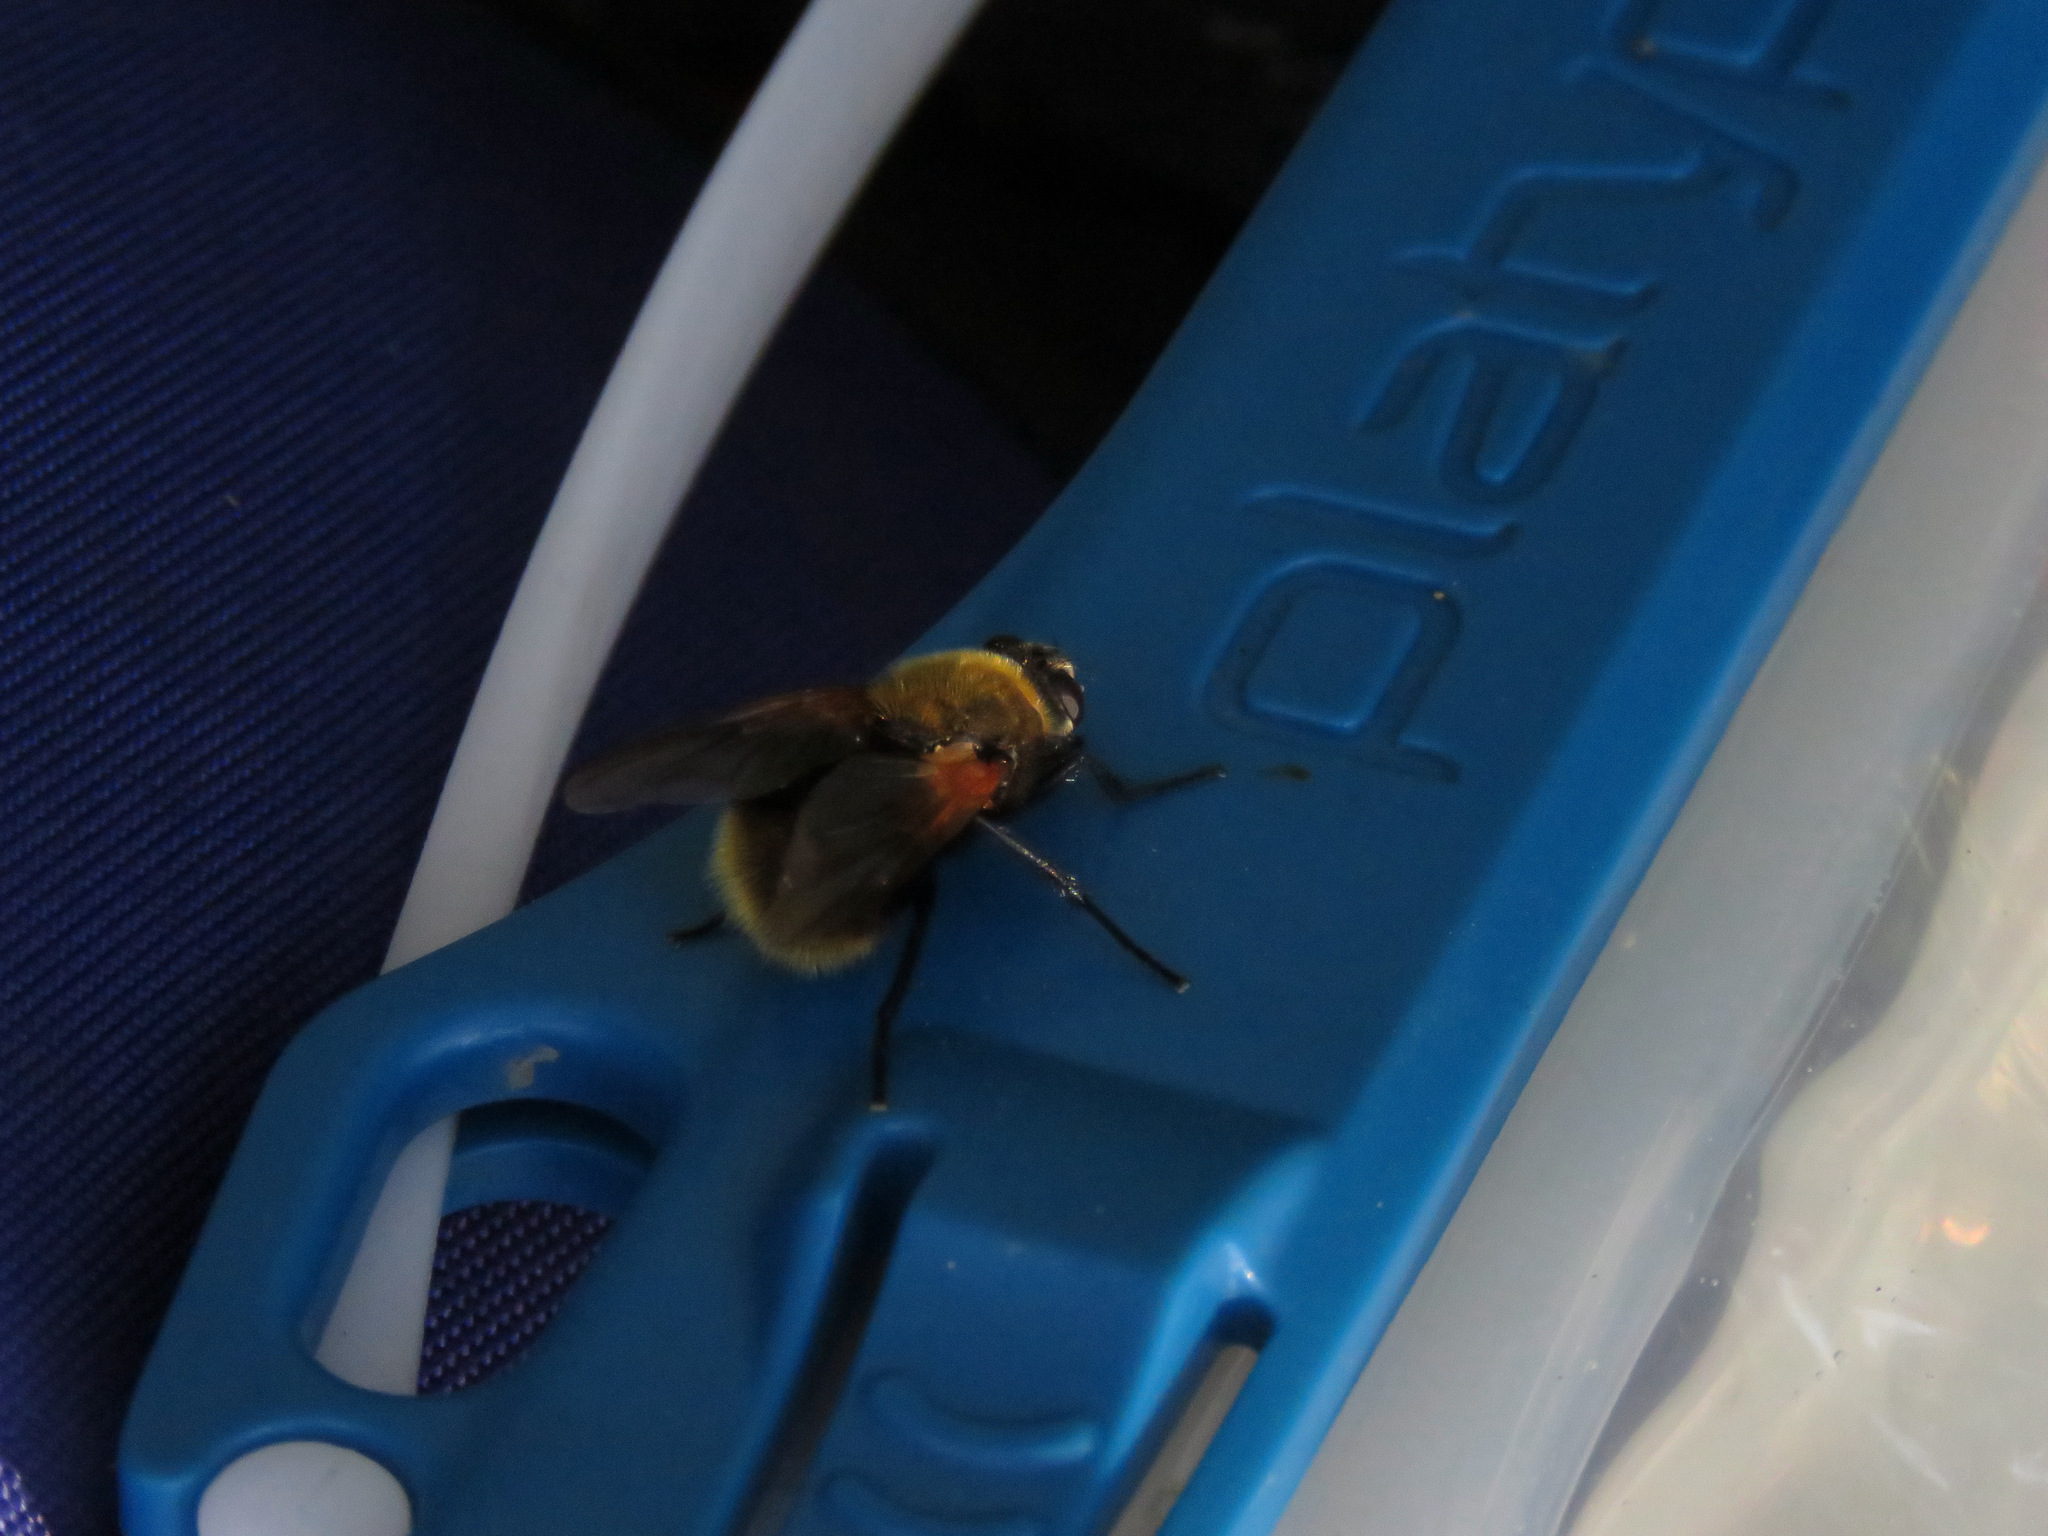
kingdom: Animalia
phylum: Arthropoda
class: Insecta
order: Diptera
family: Muscidae
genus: Mesembrina
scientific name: Mesembrina decipiens
